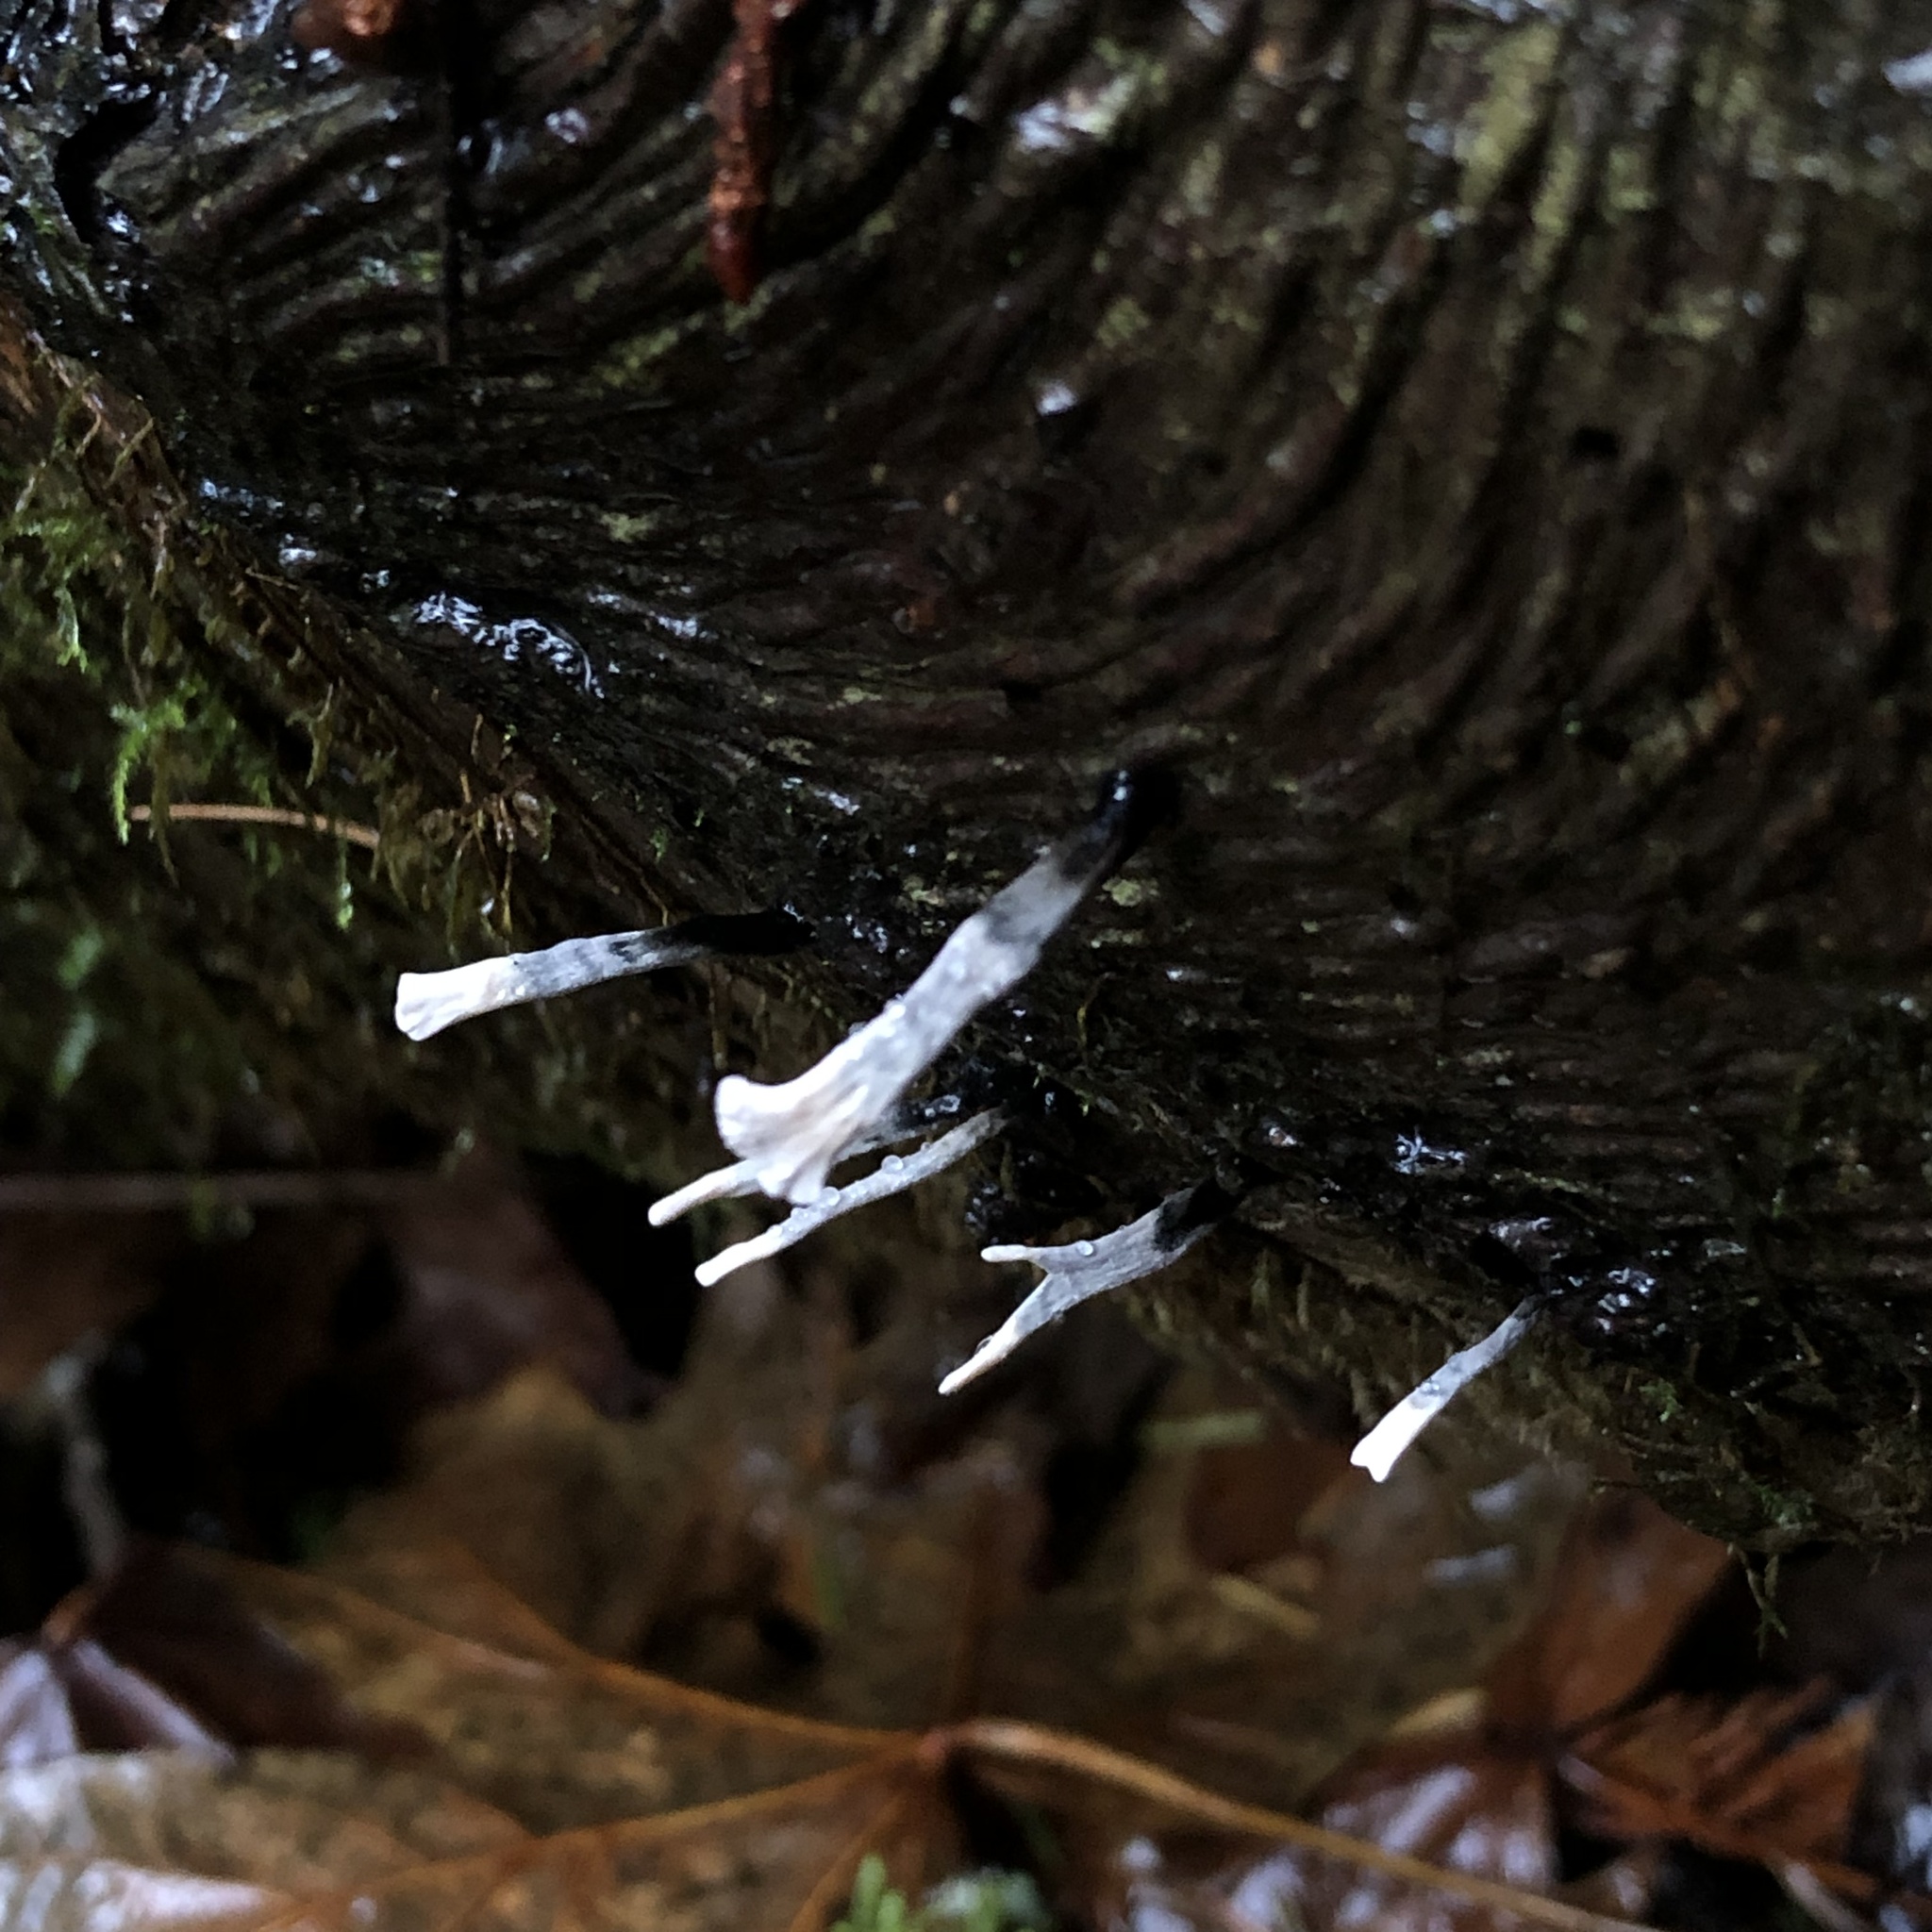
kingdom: Fungi
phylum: Ascomycota
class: Sordariomycetes
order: Xylariales
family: Xylariaceae
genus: Xylaria
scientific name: Xylaria hypoxylon
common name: Candle-snuff fungus
